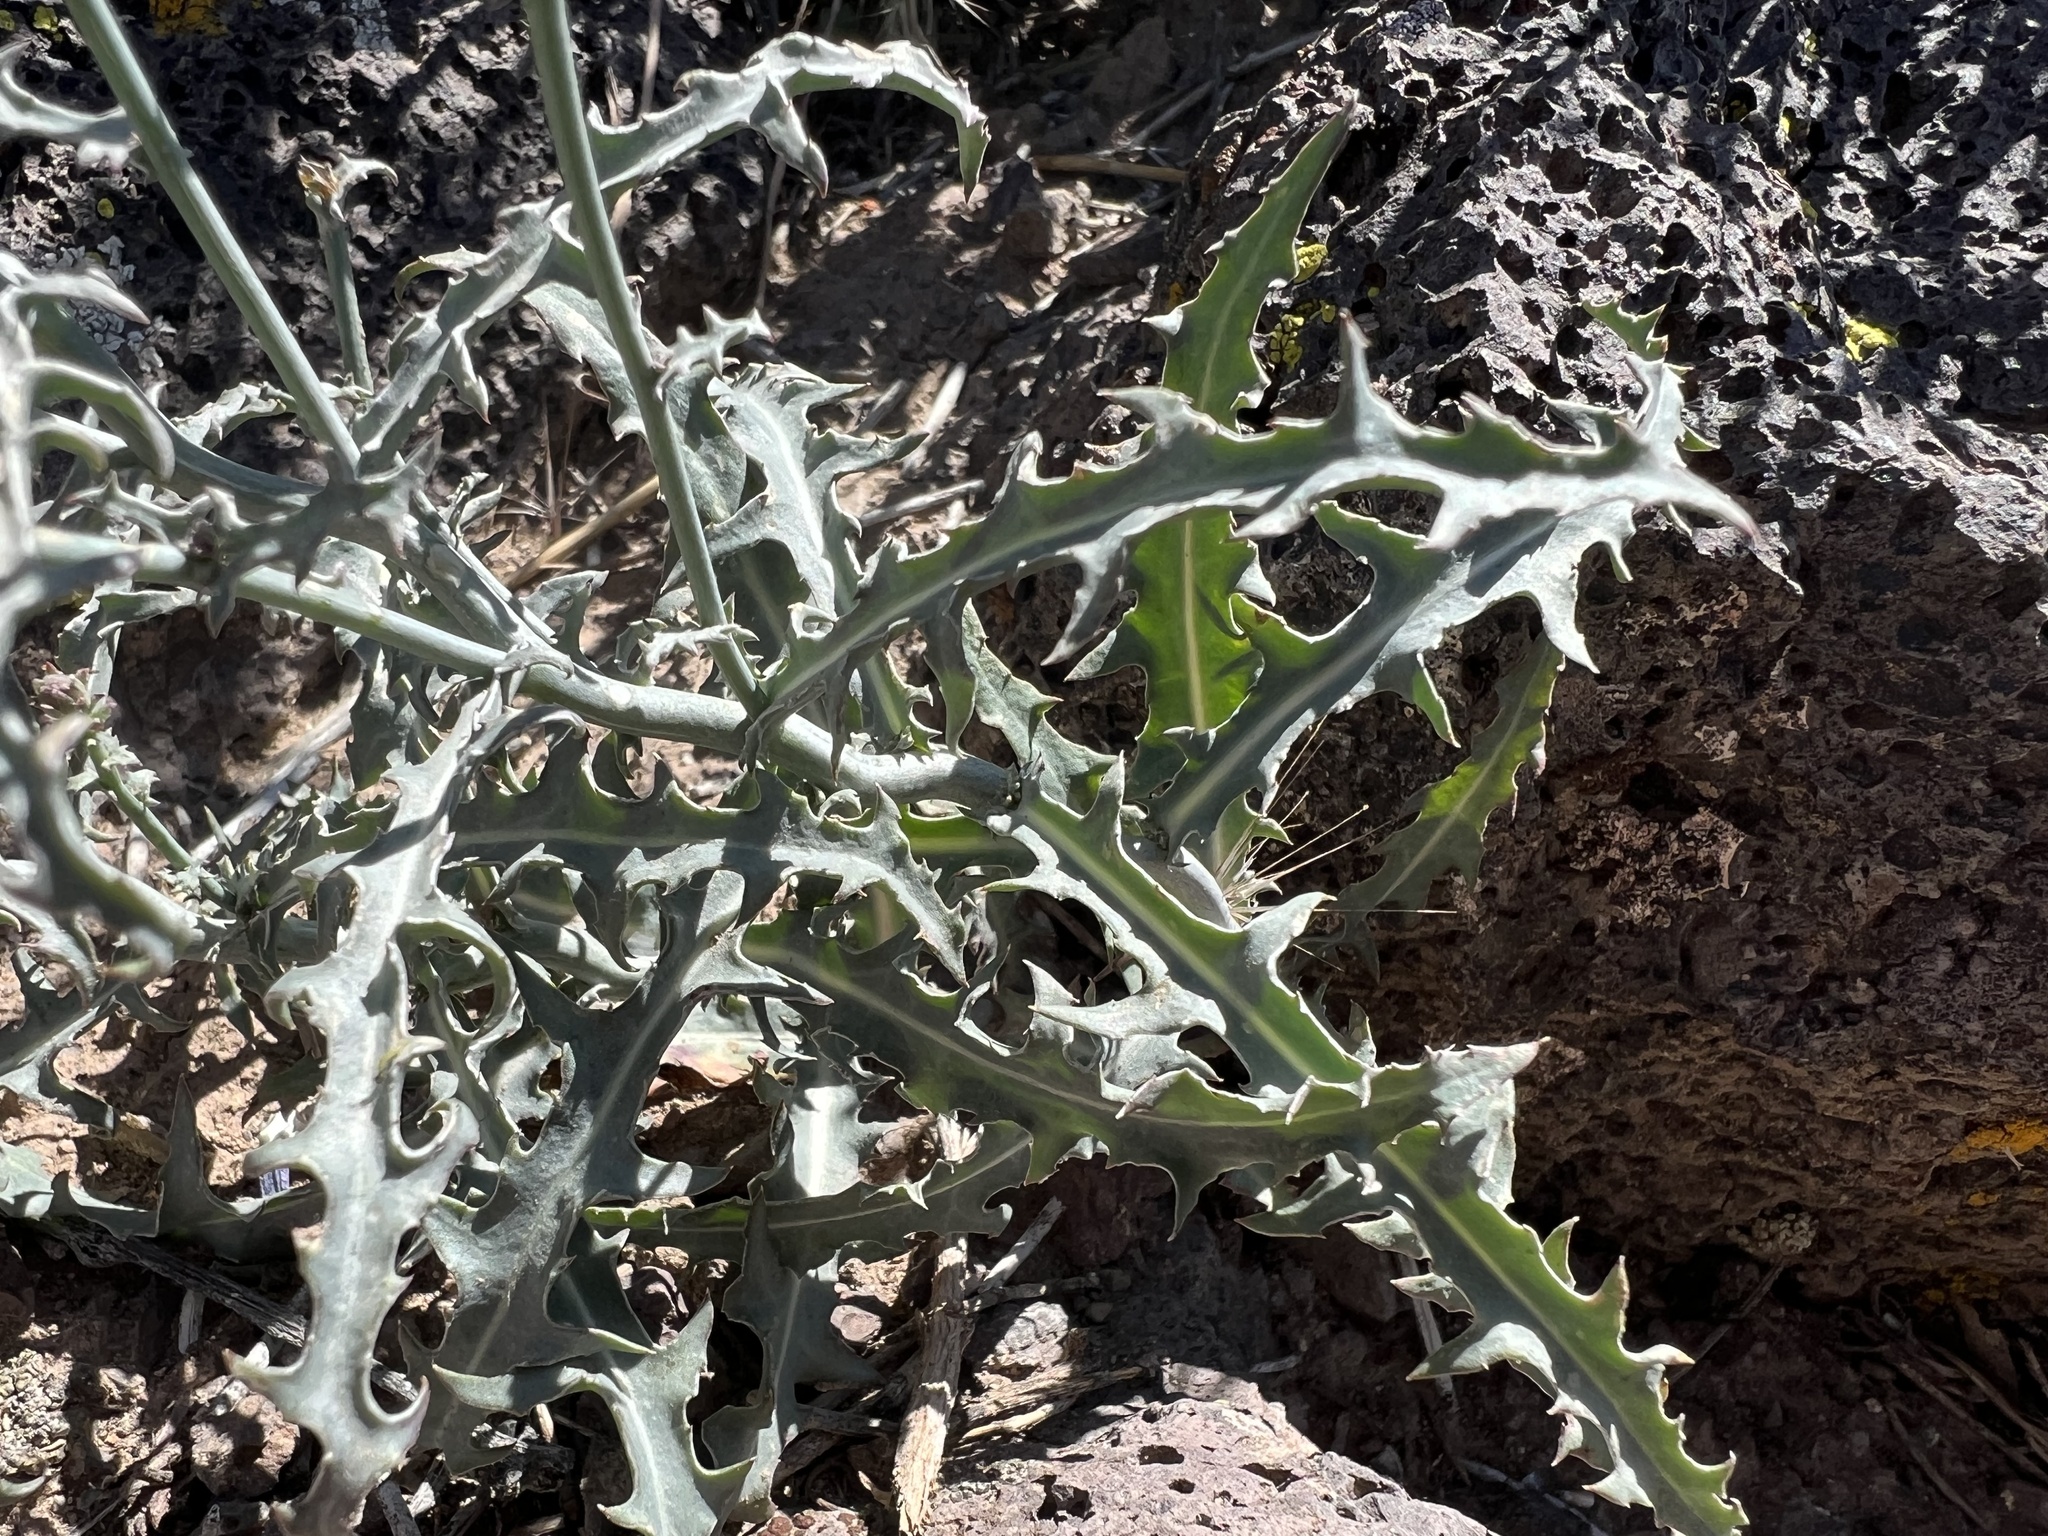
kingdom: Plantae
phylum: Tracheophyta
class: Magnoliopsida
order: Asterales
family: Asteraceae
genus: Stephanomeria
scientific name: Stephanomeria parryi
